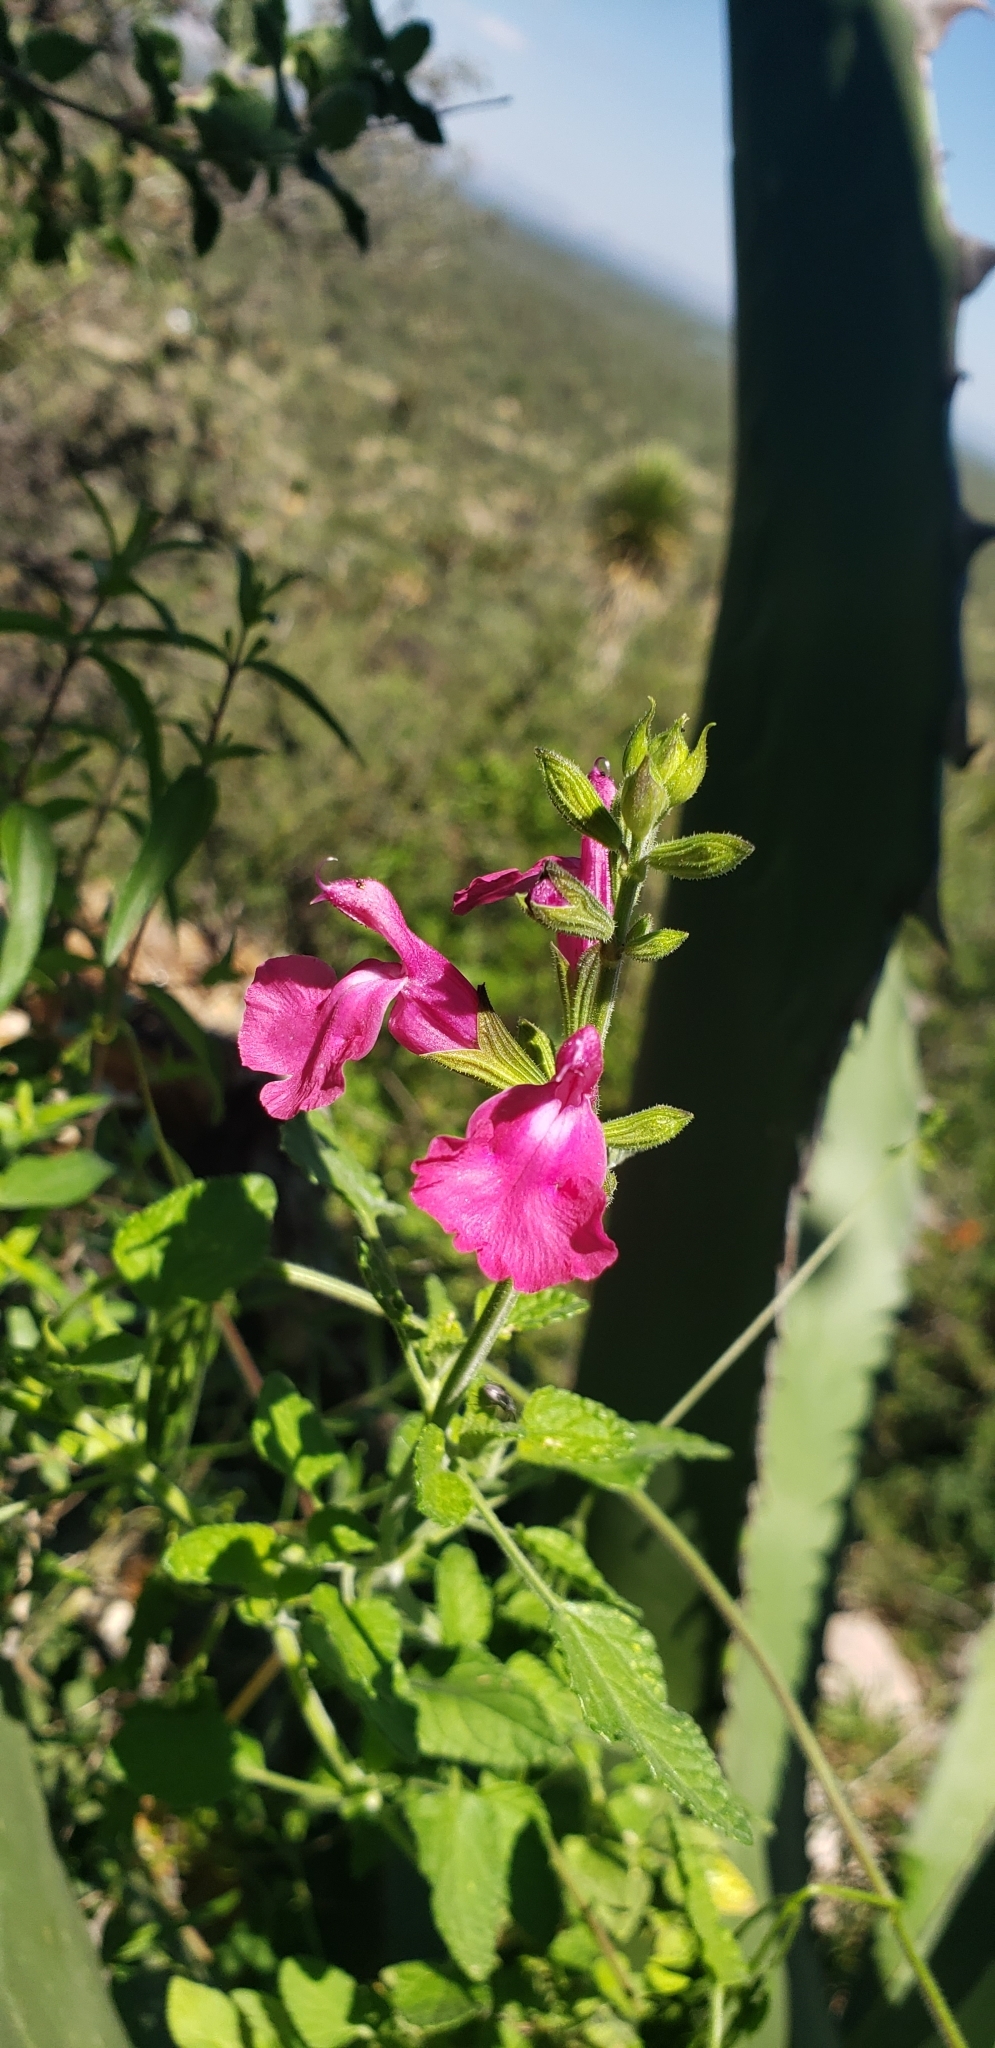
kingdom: Plantae
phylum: Tracheophyta
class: Magnoliopsida
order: Lamiales
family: Lamiaceae
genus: Salvia
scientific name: Salvia microphylla
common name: Baby sage
